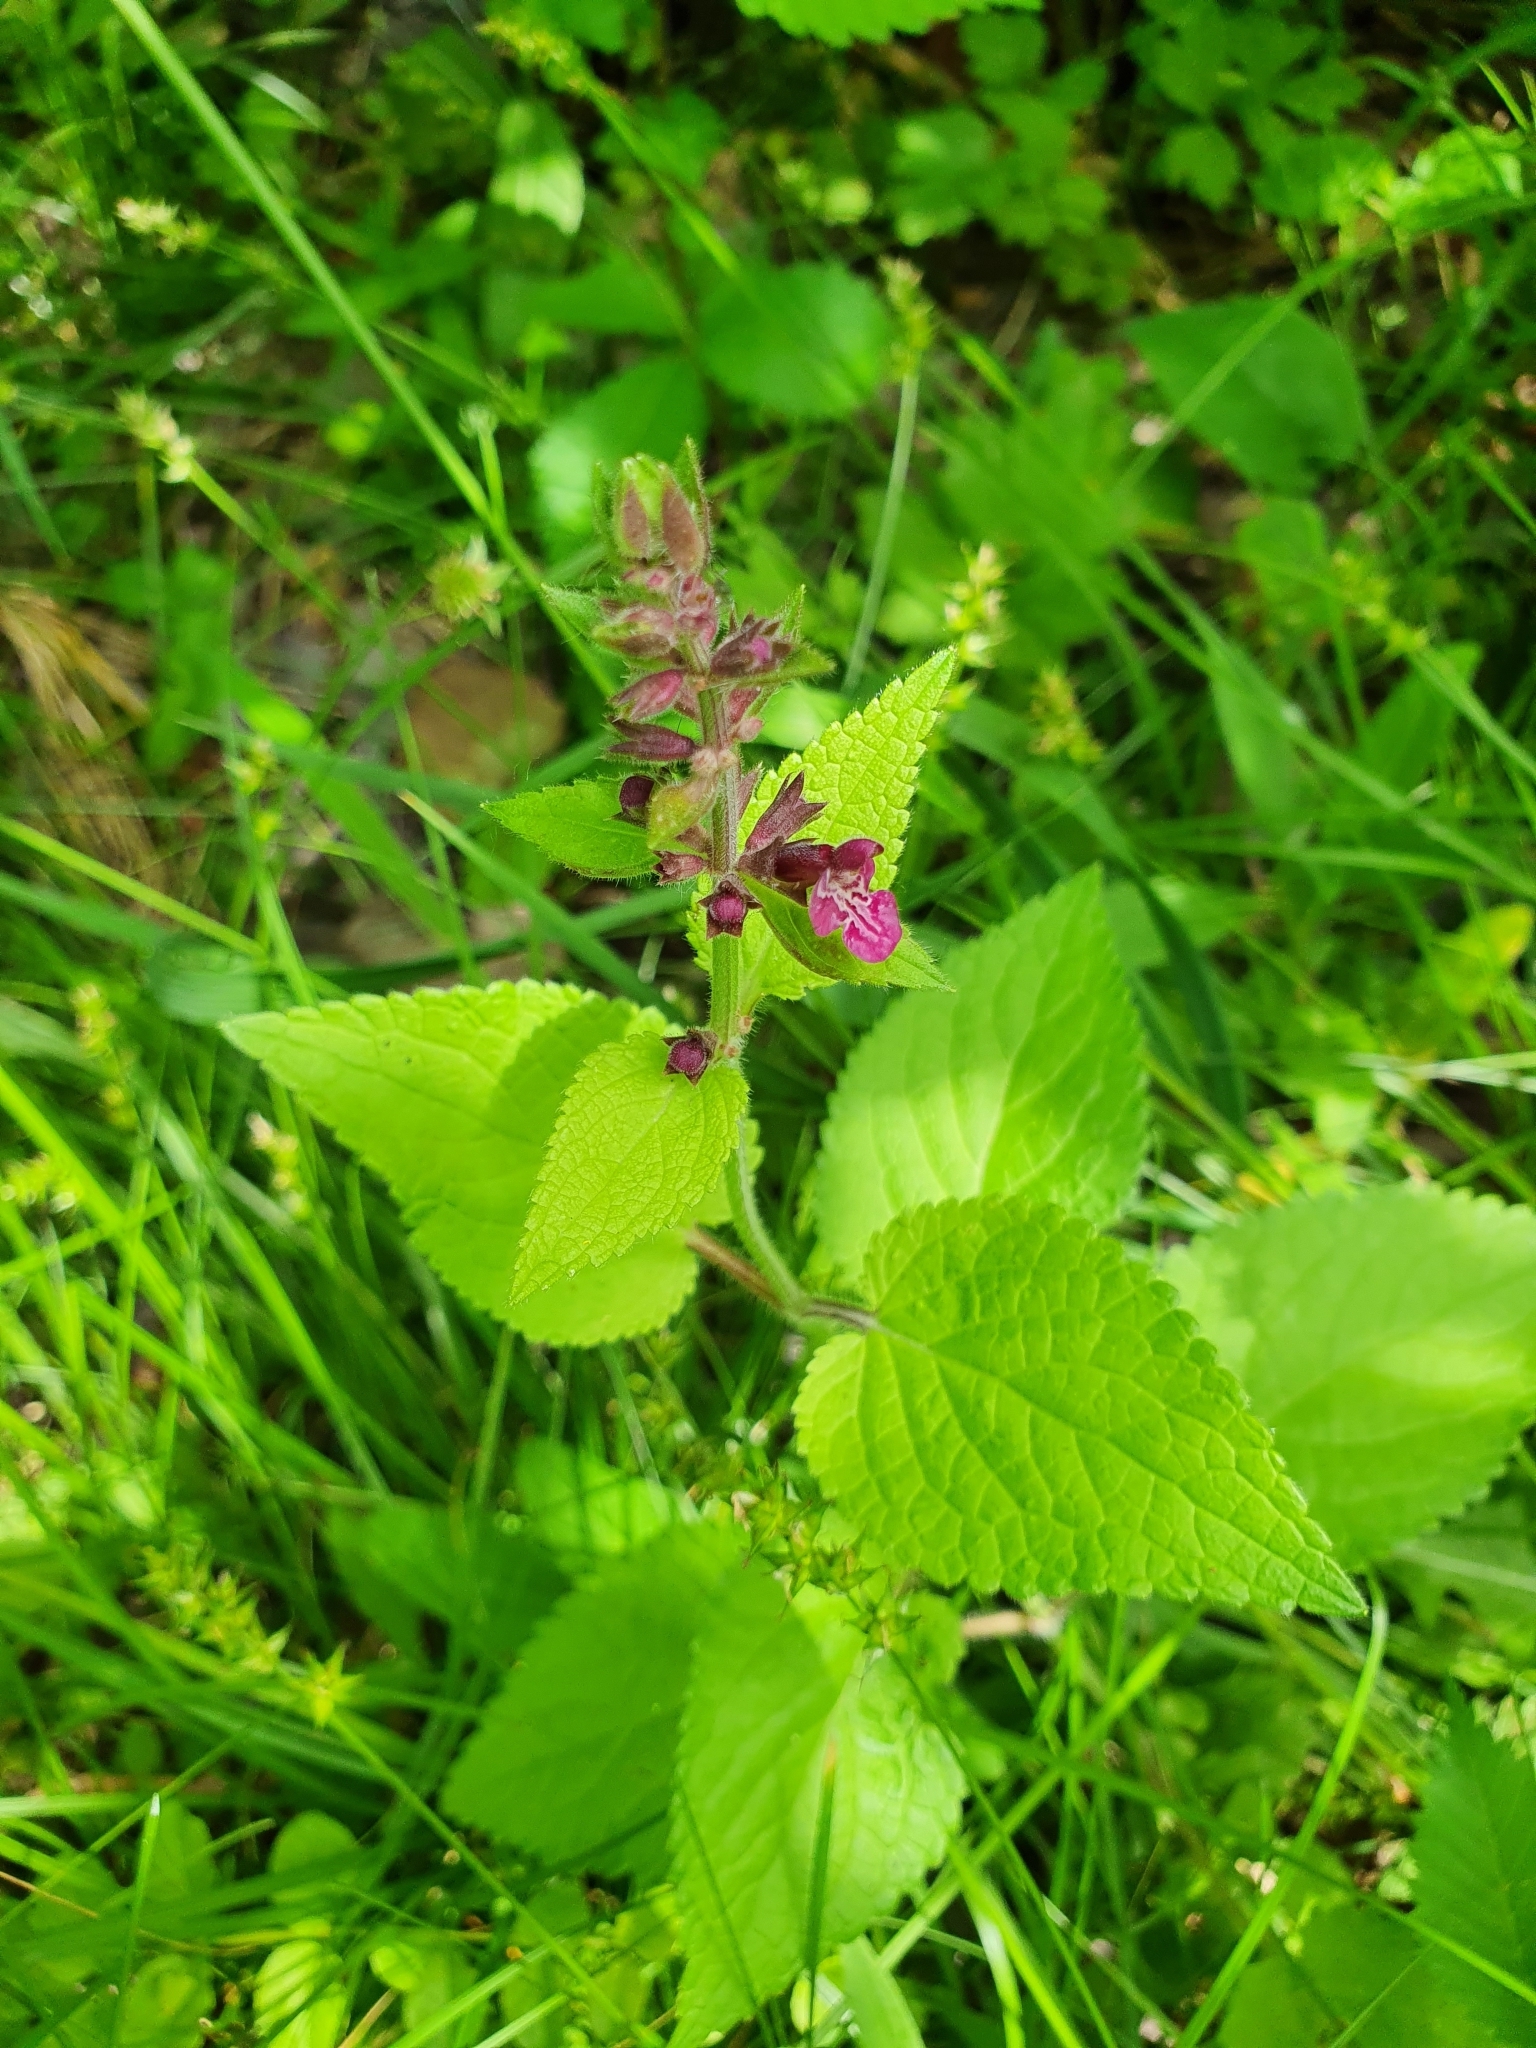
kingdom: Plantae
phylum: Tracheophyta
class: Magnoliopsida
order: Lamiales
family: Lamiaceae
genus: Stachys
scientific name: Stachys sylvatica
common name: Hedge woundwort
